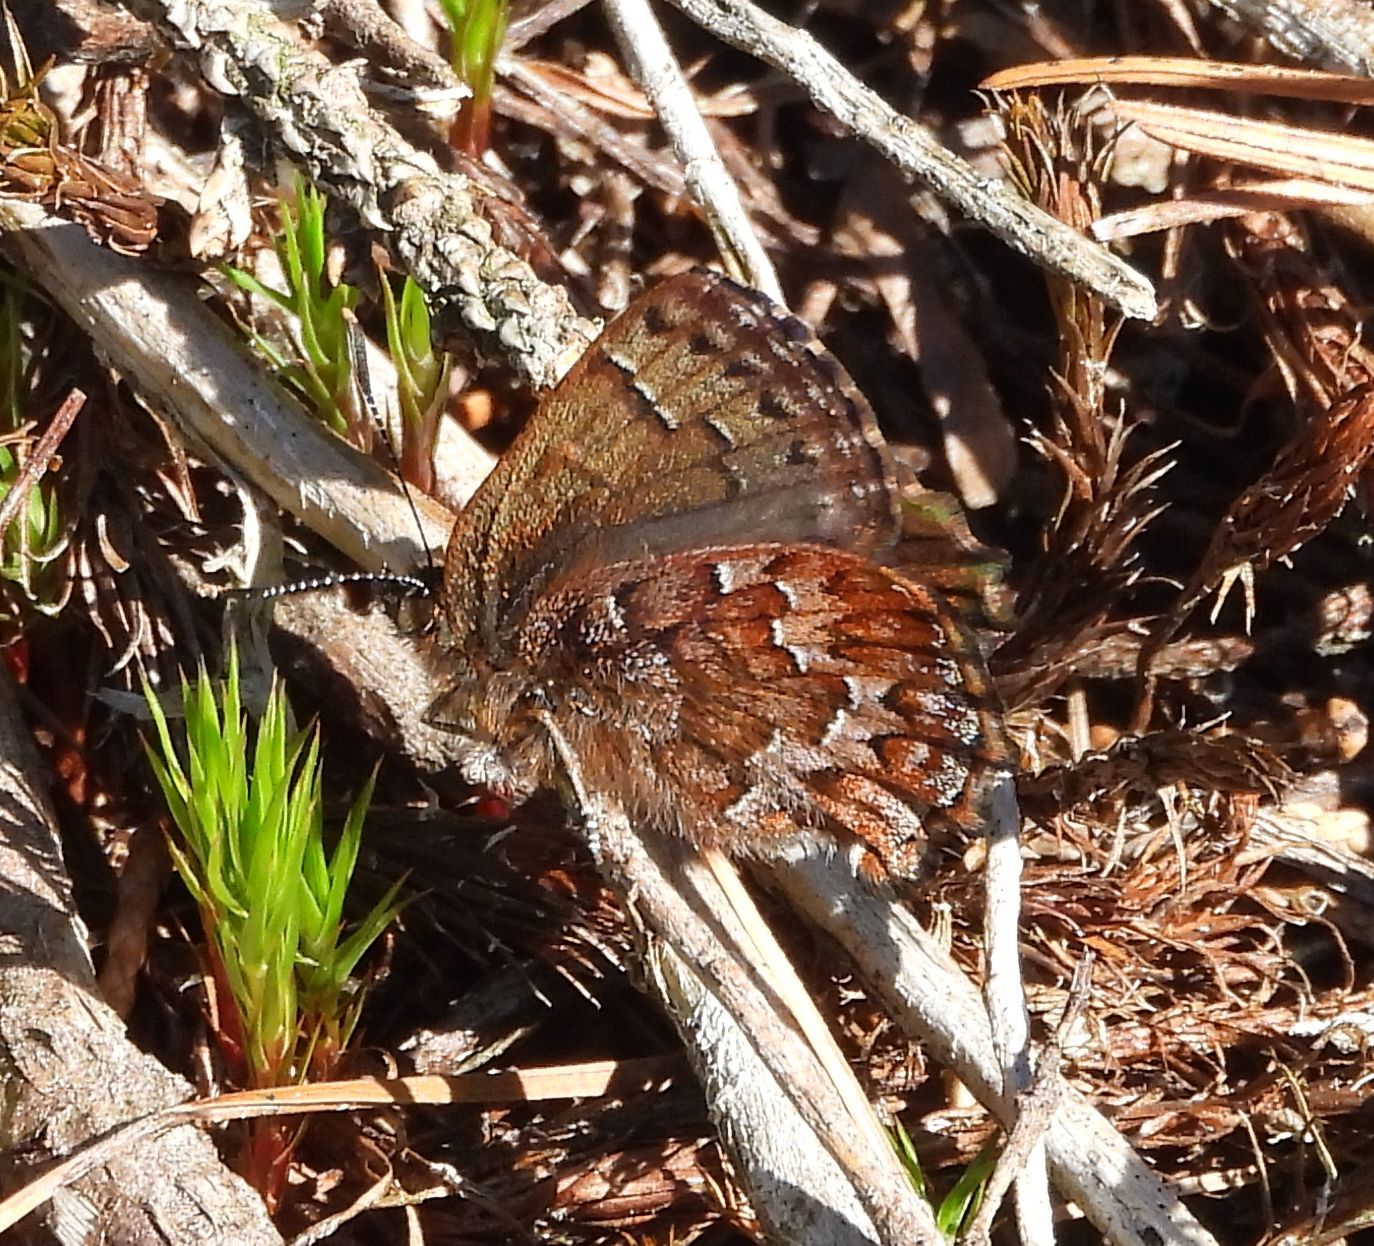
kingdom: Animalia
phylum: Arthropoda
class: Insecta
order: Lepidoptera
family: Lycaenidae
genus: Incisalia
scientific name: Incisalia niphon
